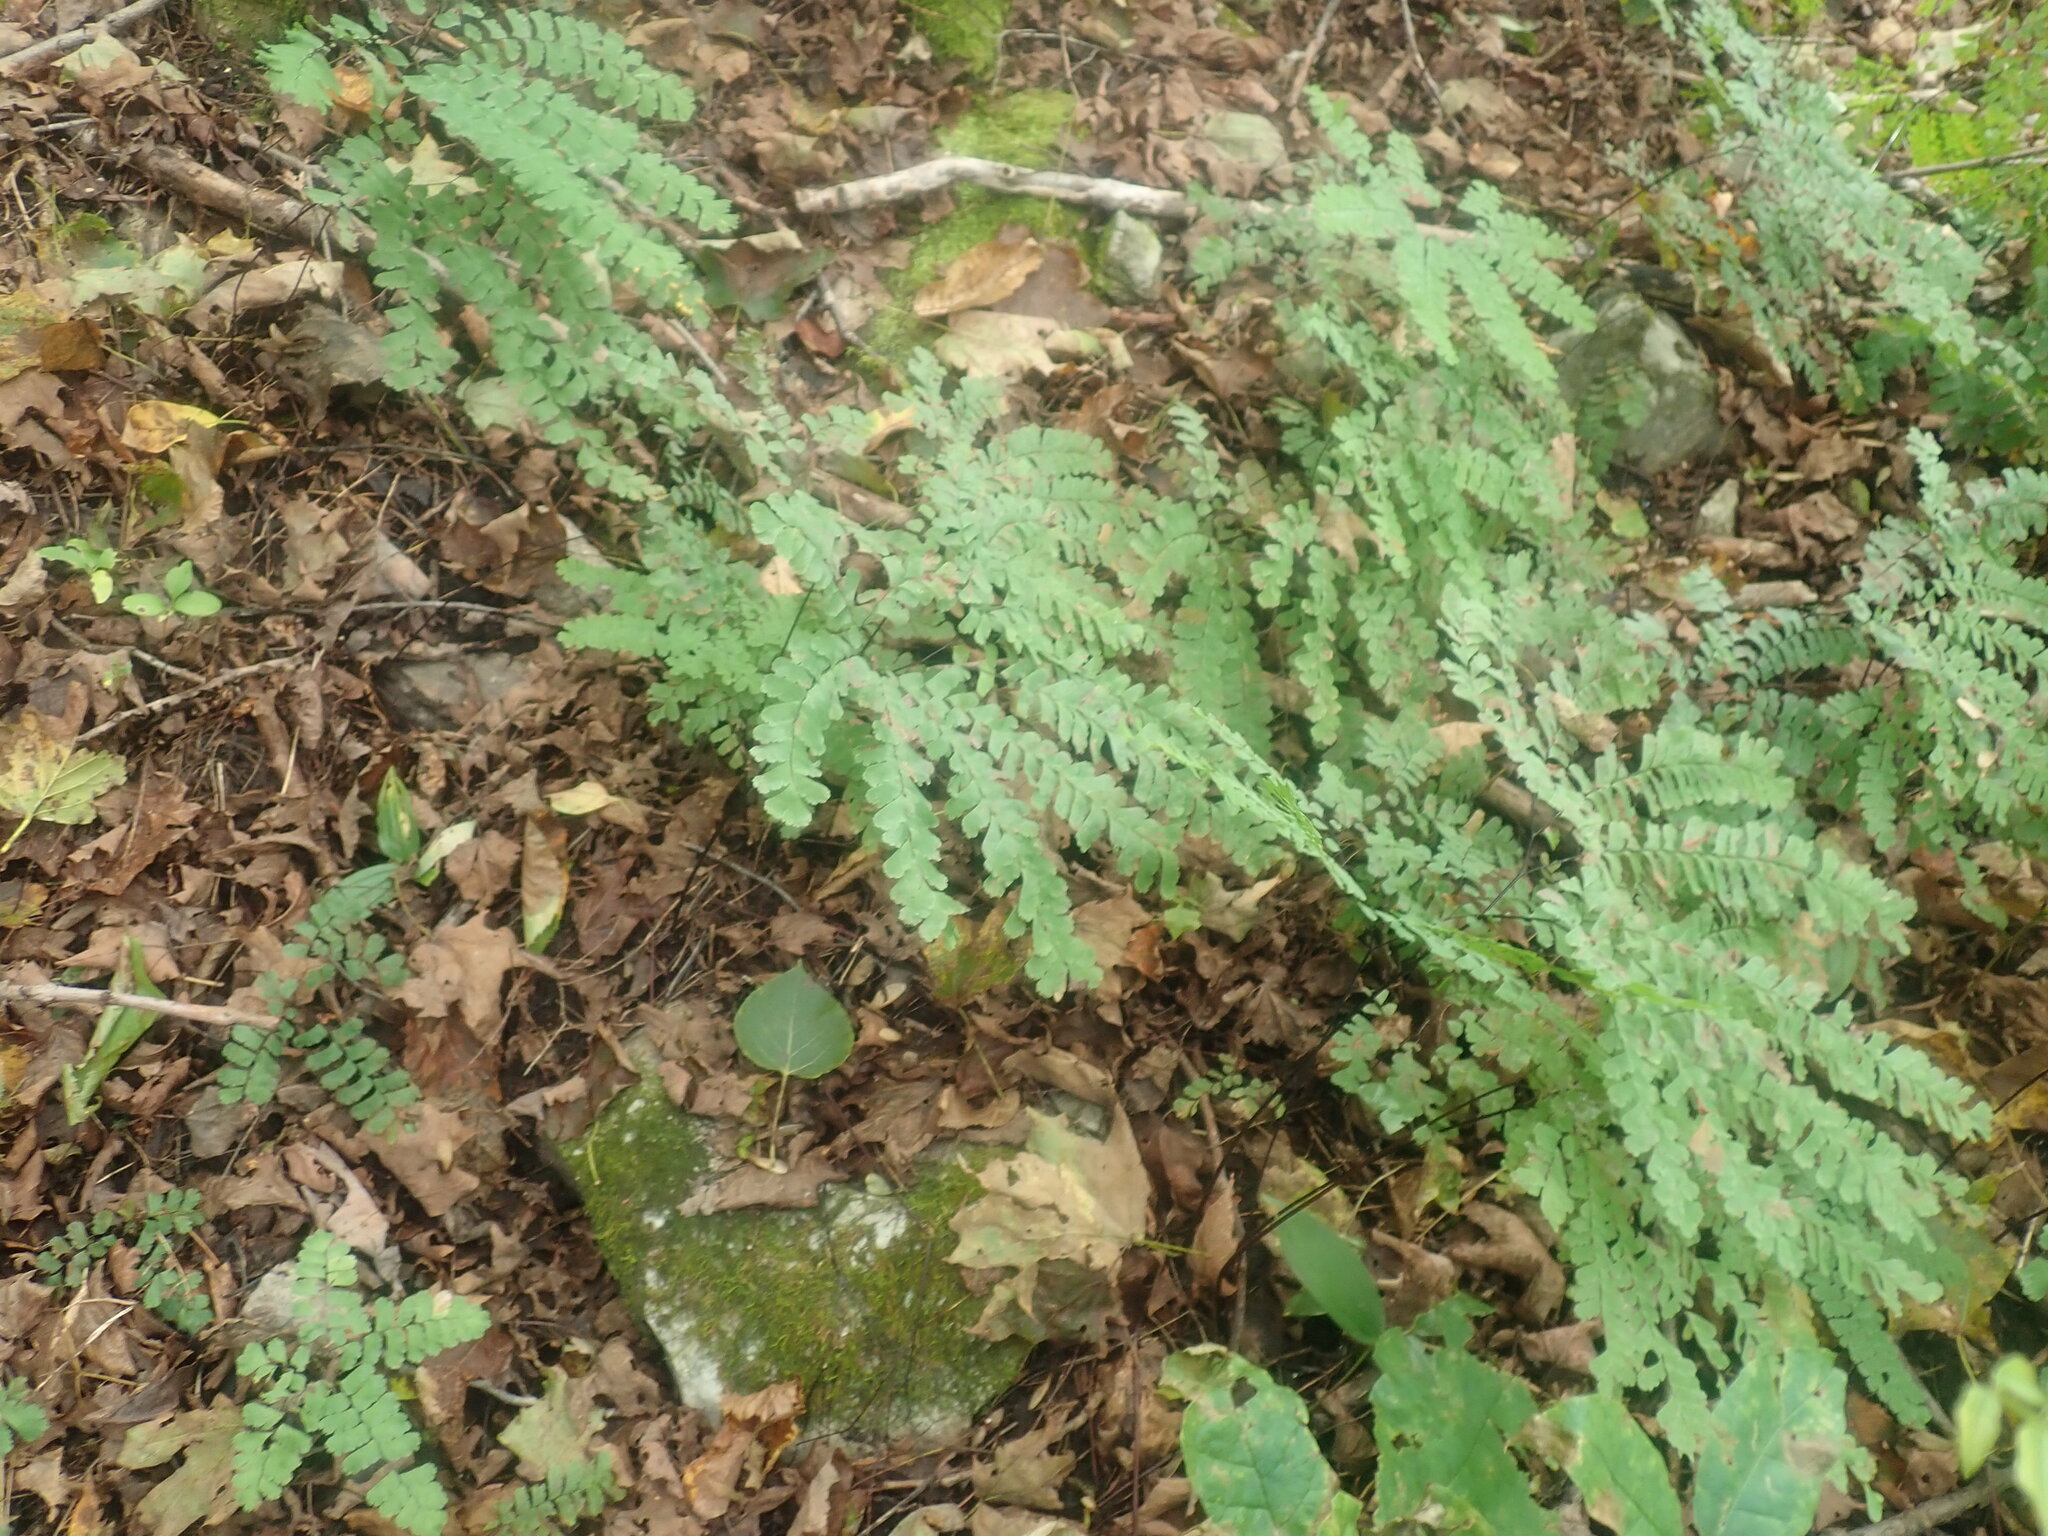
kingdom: Plantae
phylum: Tracheophyta
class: Polypodiopsida
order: Polypodiales
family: Pteridaceae
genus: Adiantum
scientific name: Adiantum pedatum
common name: Five-finger fern
